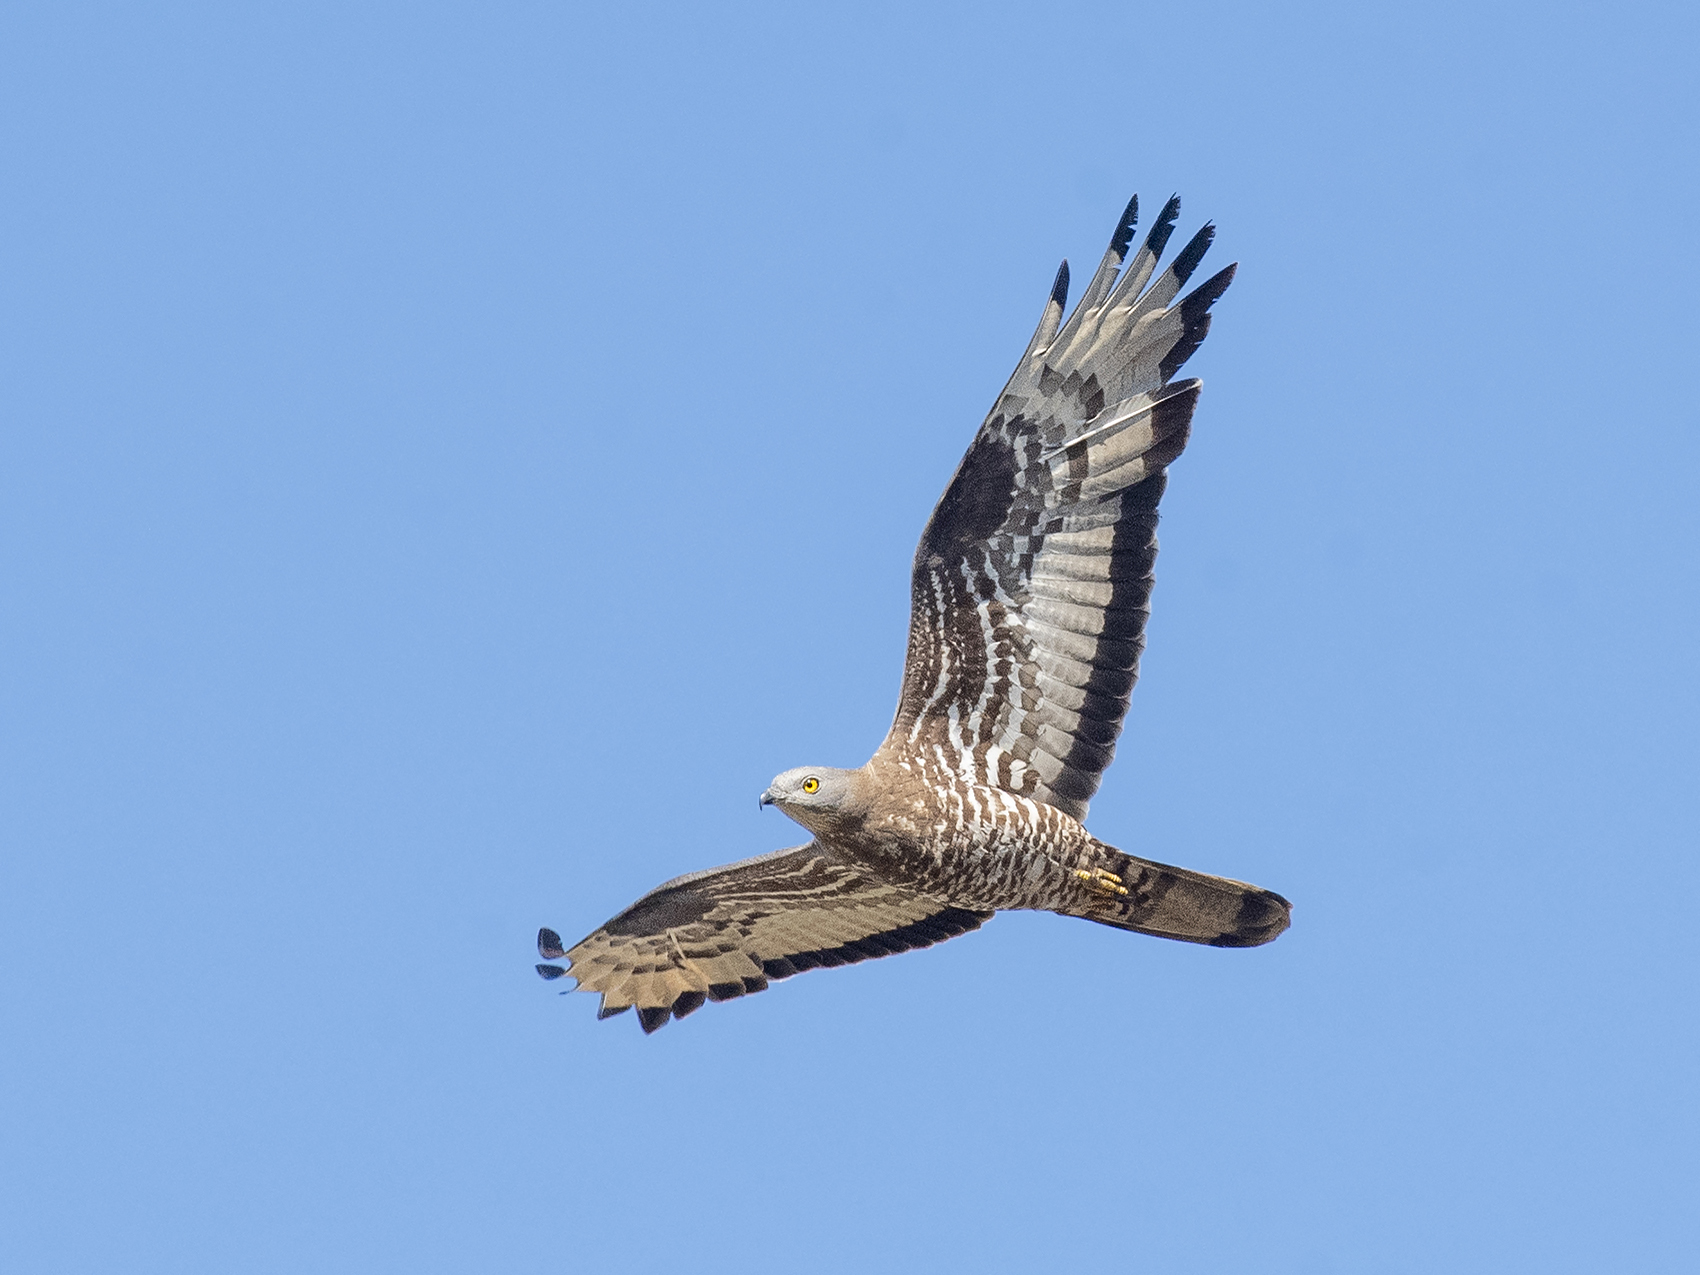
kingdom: Animalia
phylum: Chordata
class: Aves
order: Accipitriformes
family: Accipitridae
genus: Pernis
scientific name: Pernis apivorus
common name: European honey buzzard
